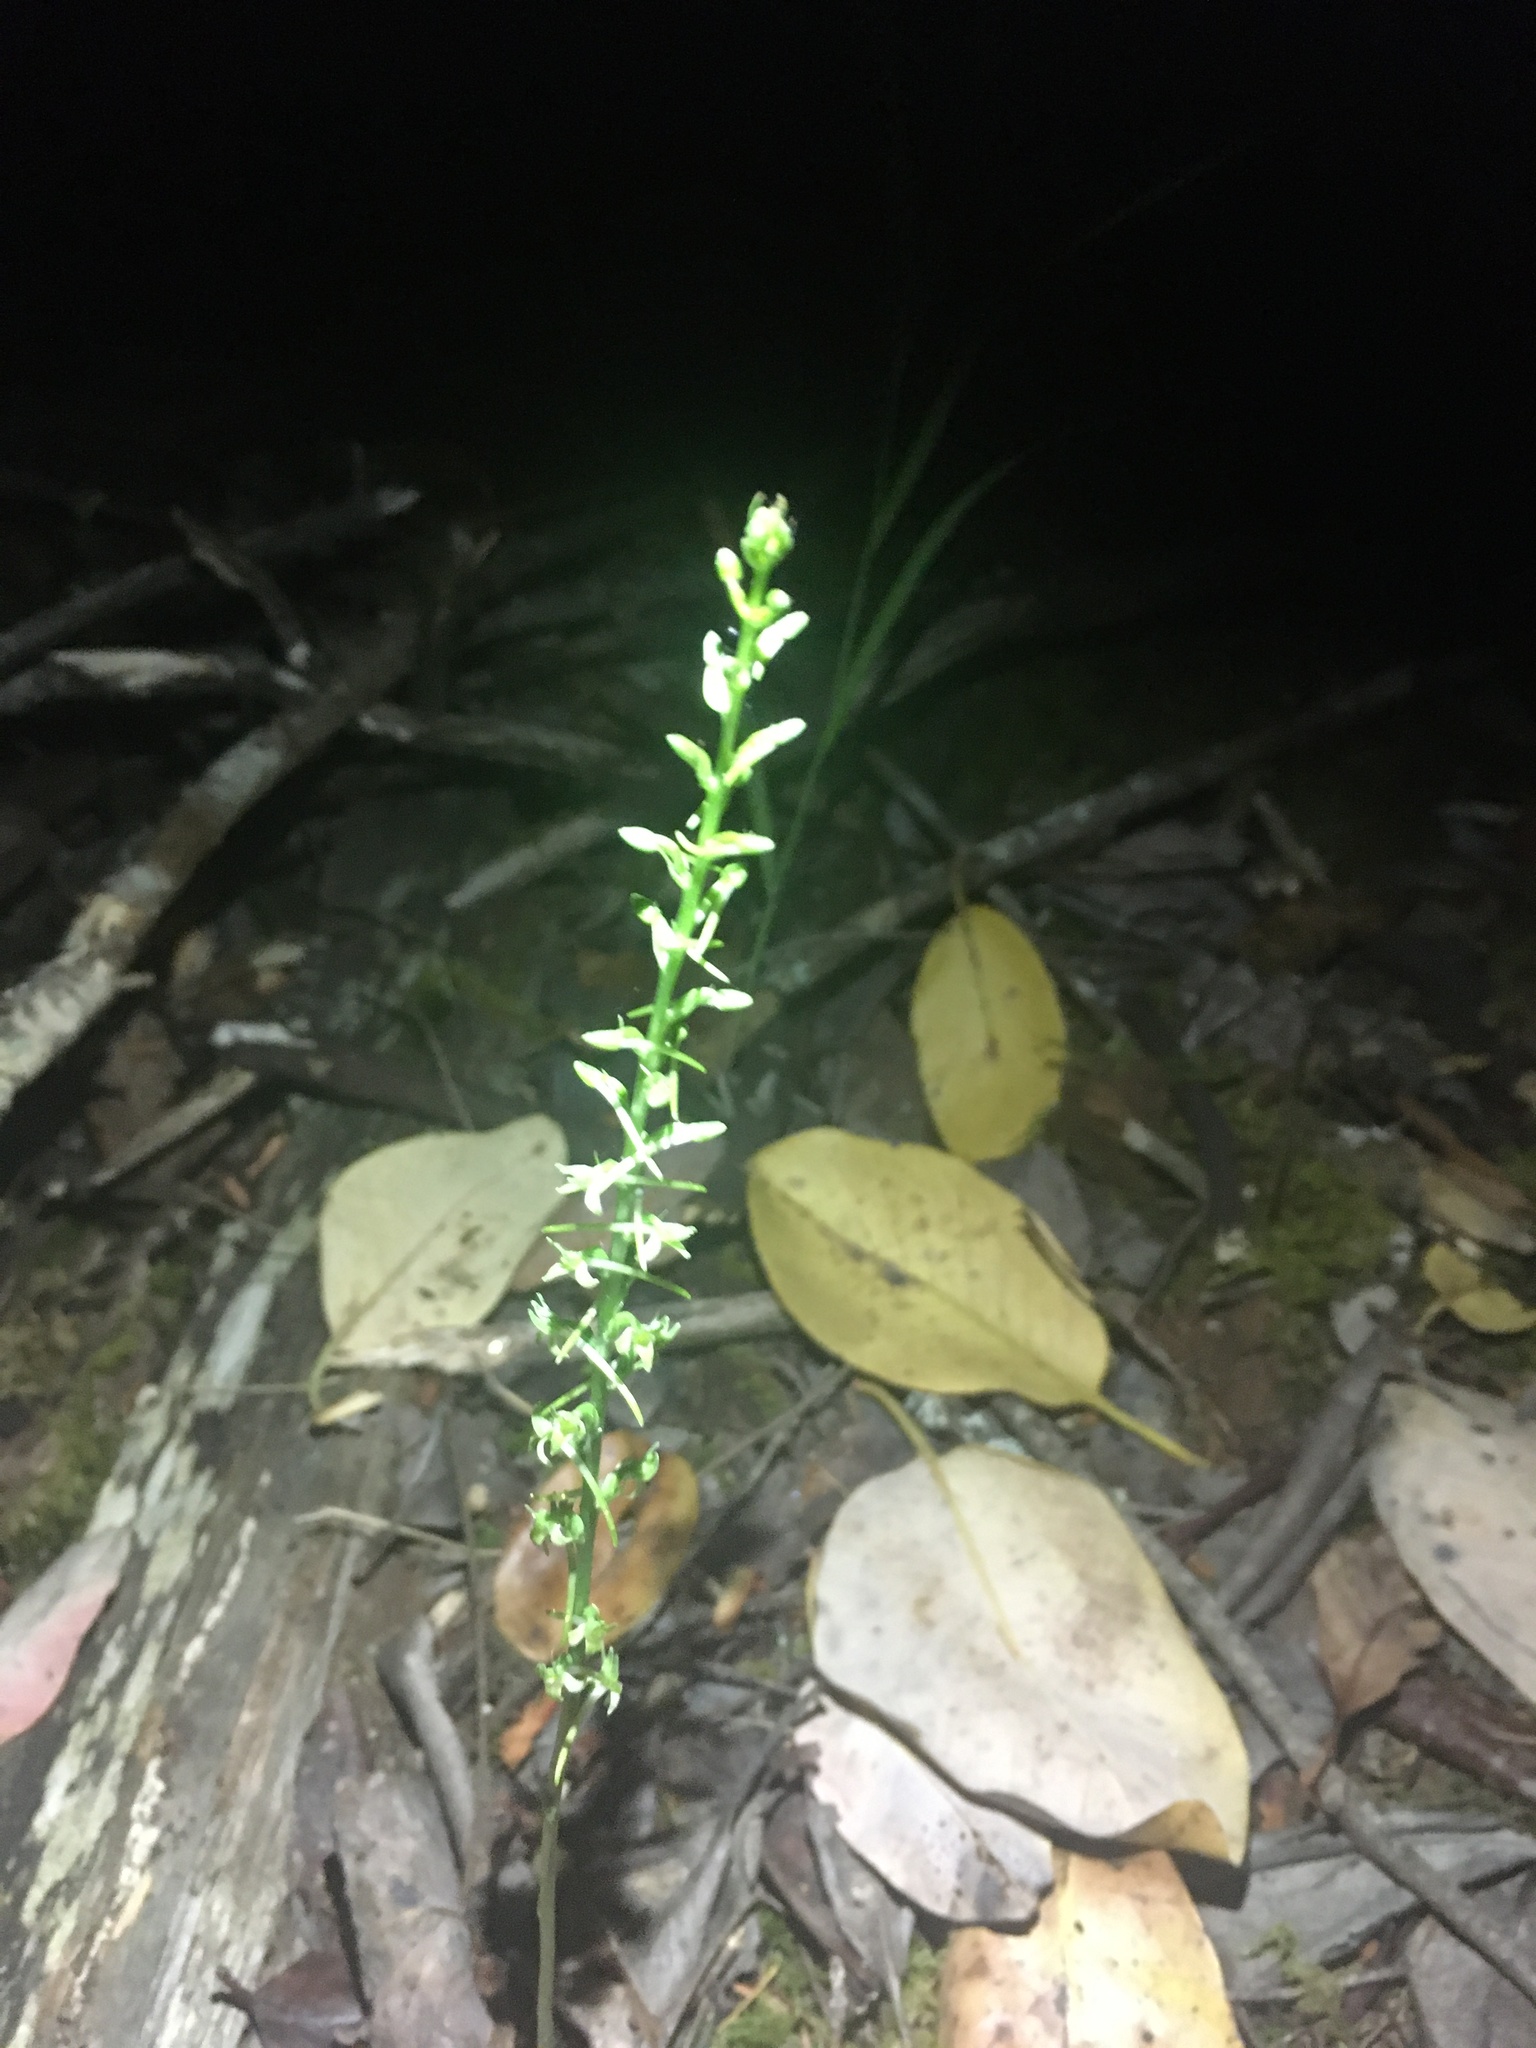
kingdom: Plantae
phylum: Tracheophyta
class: Liliopsida
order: Asparagales
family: Orchidaceae
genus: Platanthera
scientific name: Platanthera elongata
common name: Dense-flowered rein orchid
